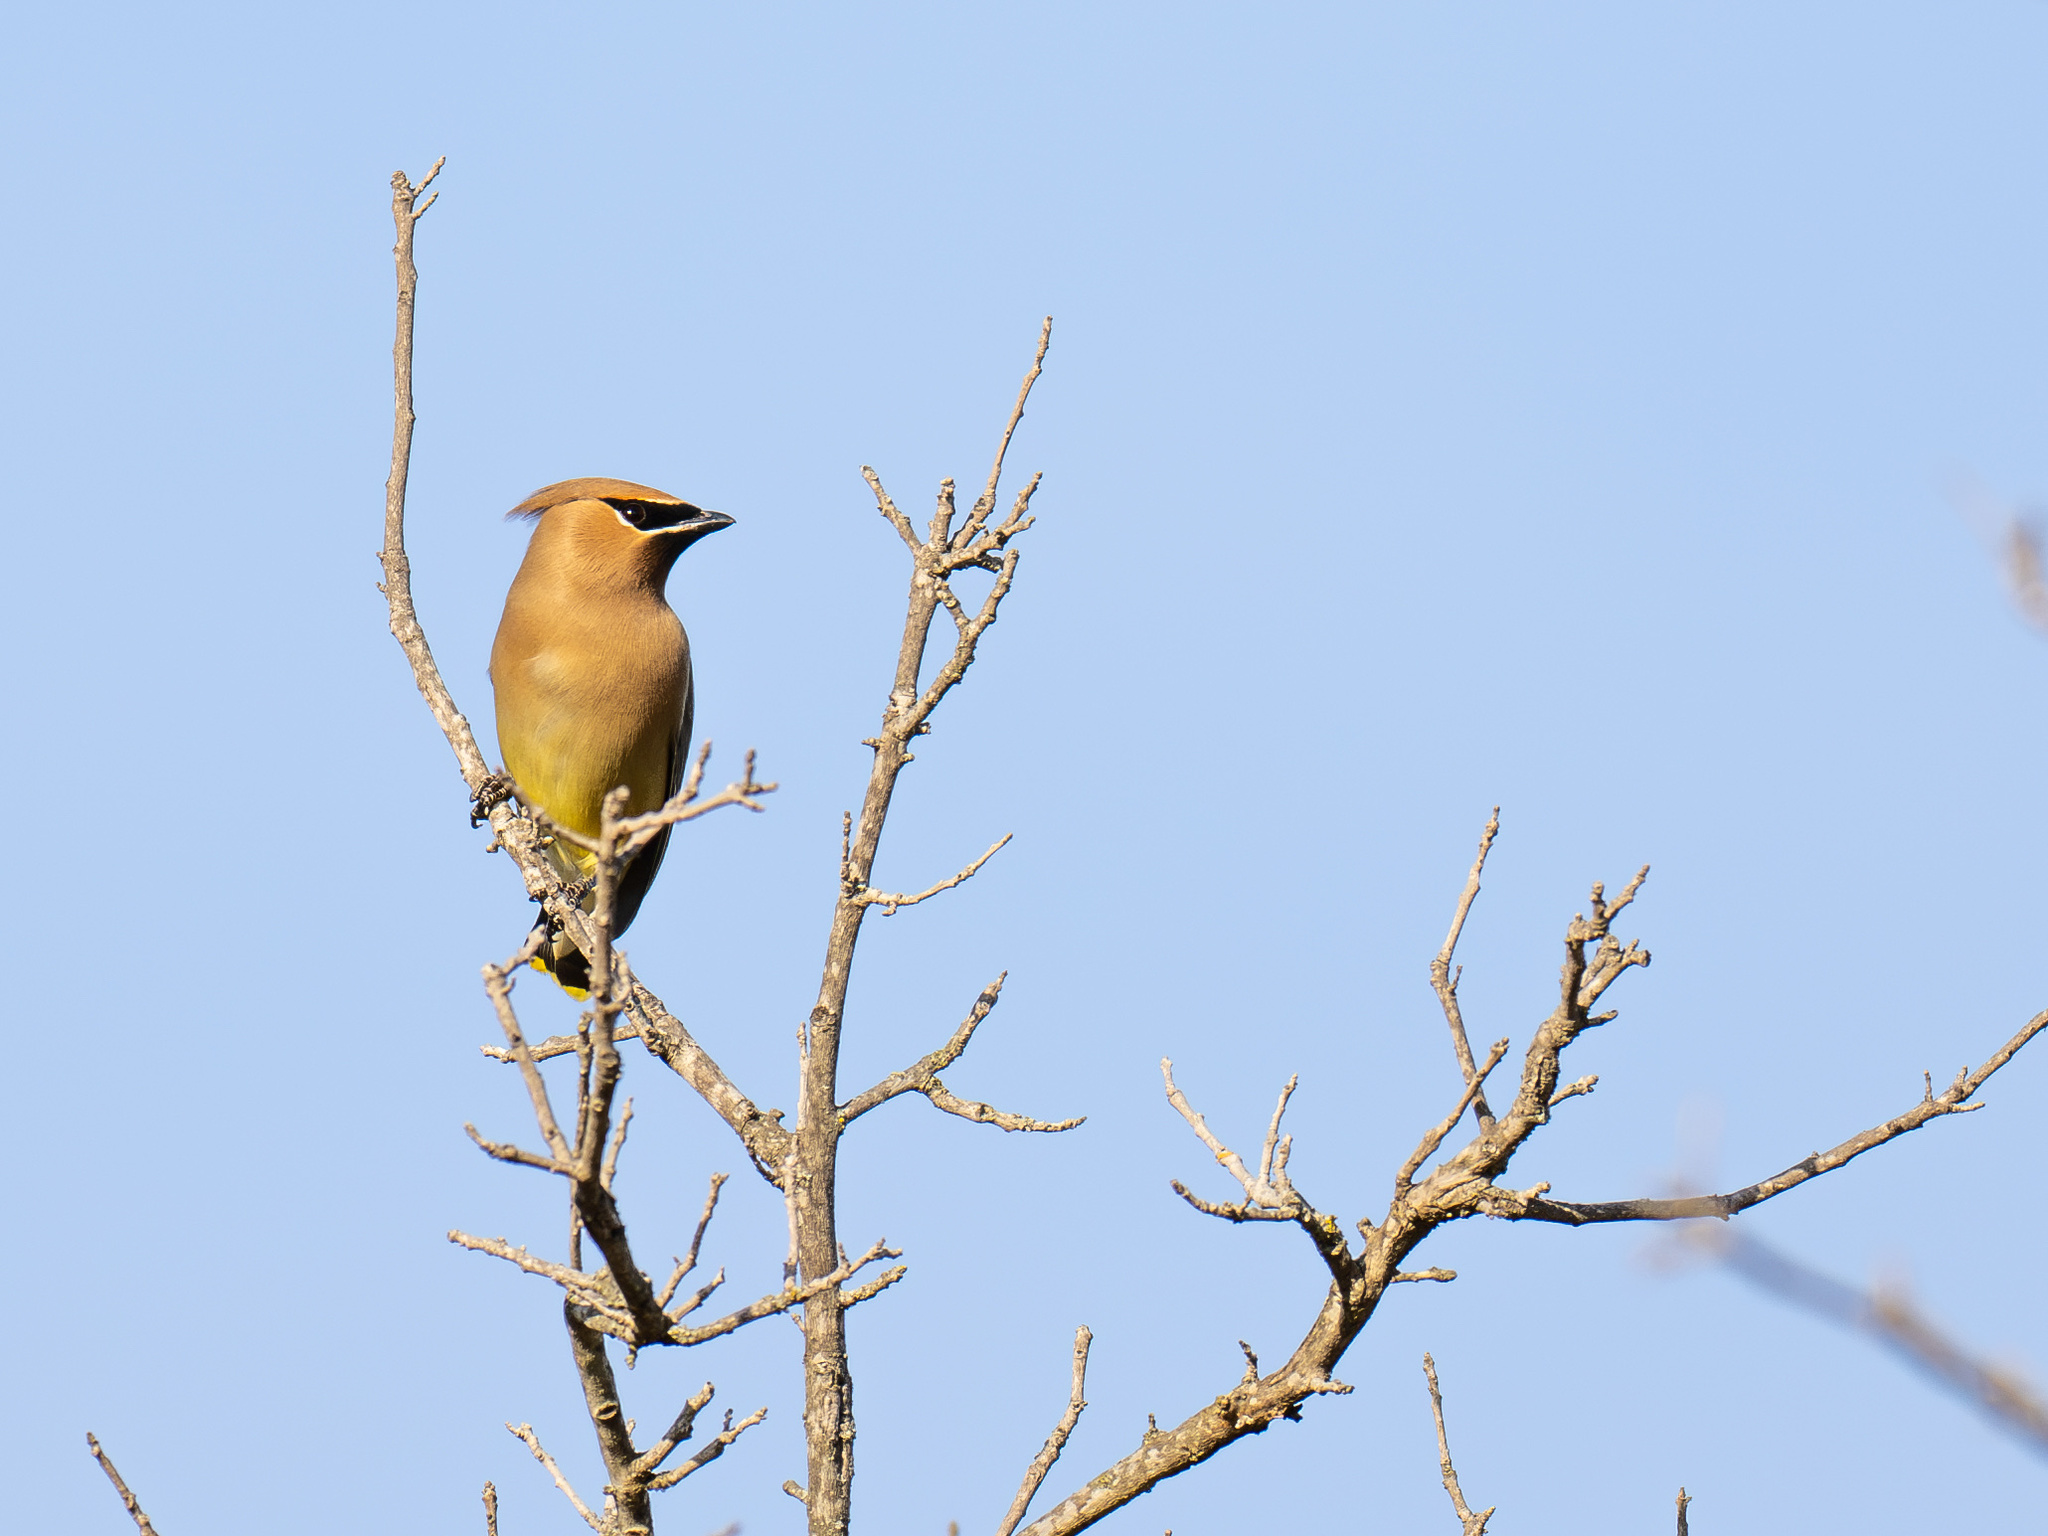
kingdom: Animalia
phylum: Chordata
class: Aves
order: Passeriformes
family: Bombycillidae
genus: Bombycilla
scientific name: Bombycilla cedrorum
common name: Cedar waxwing
